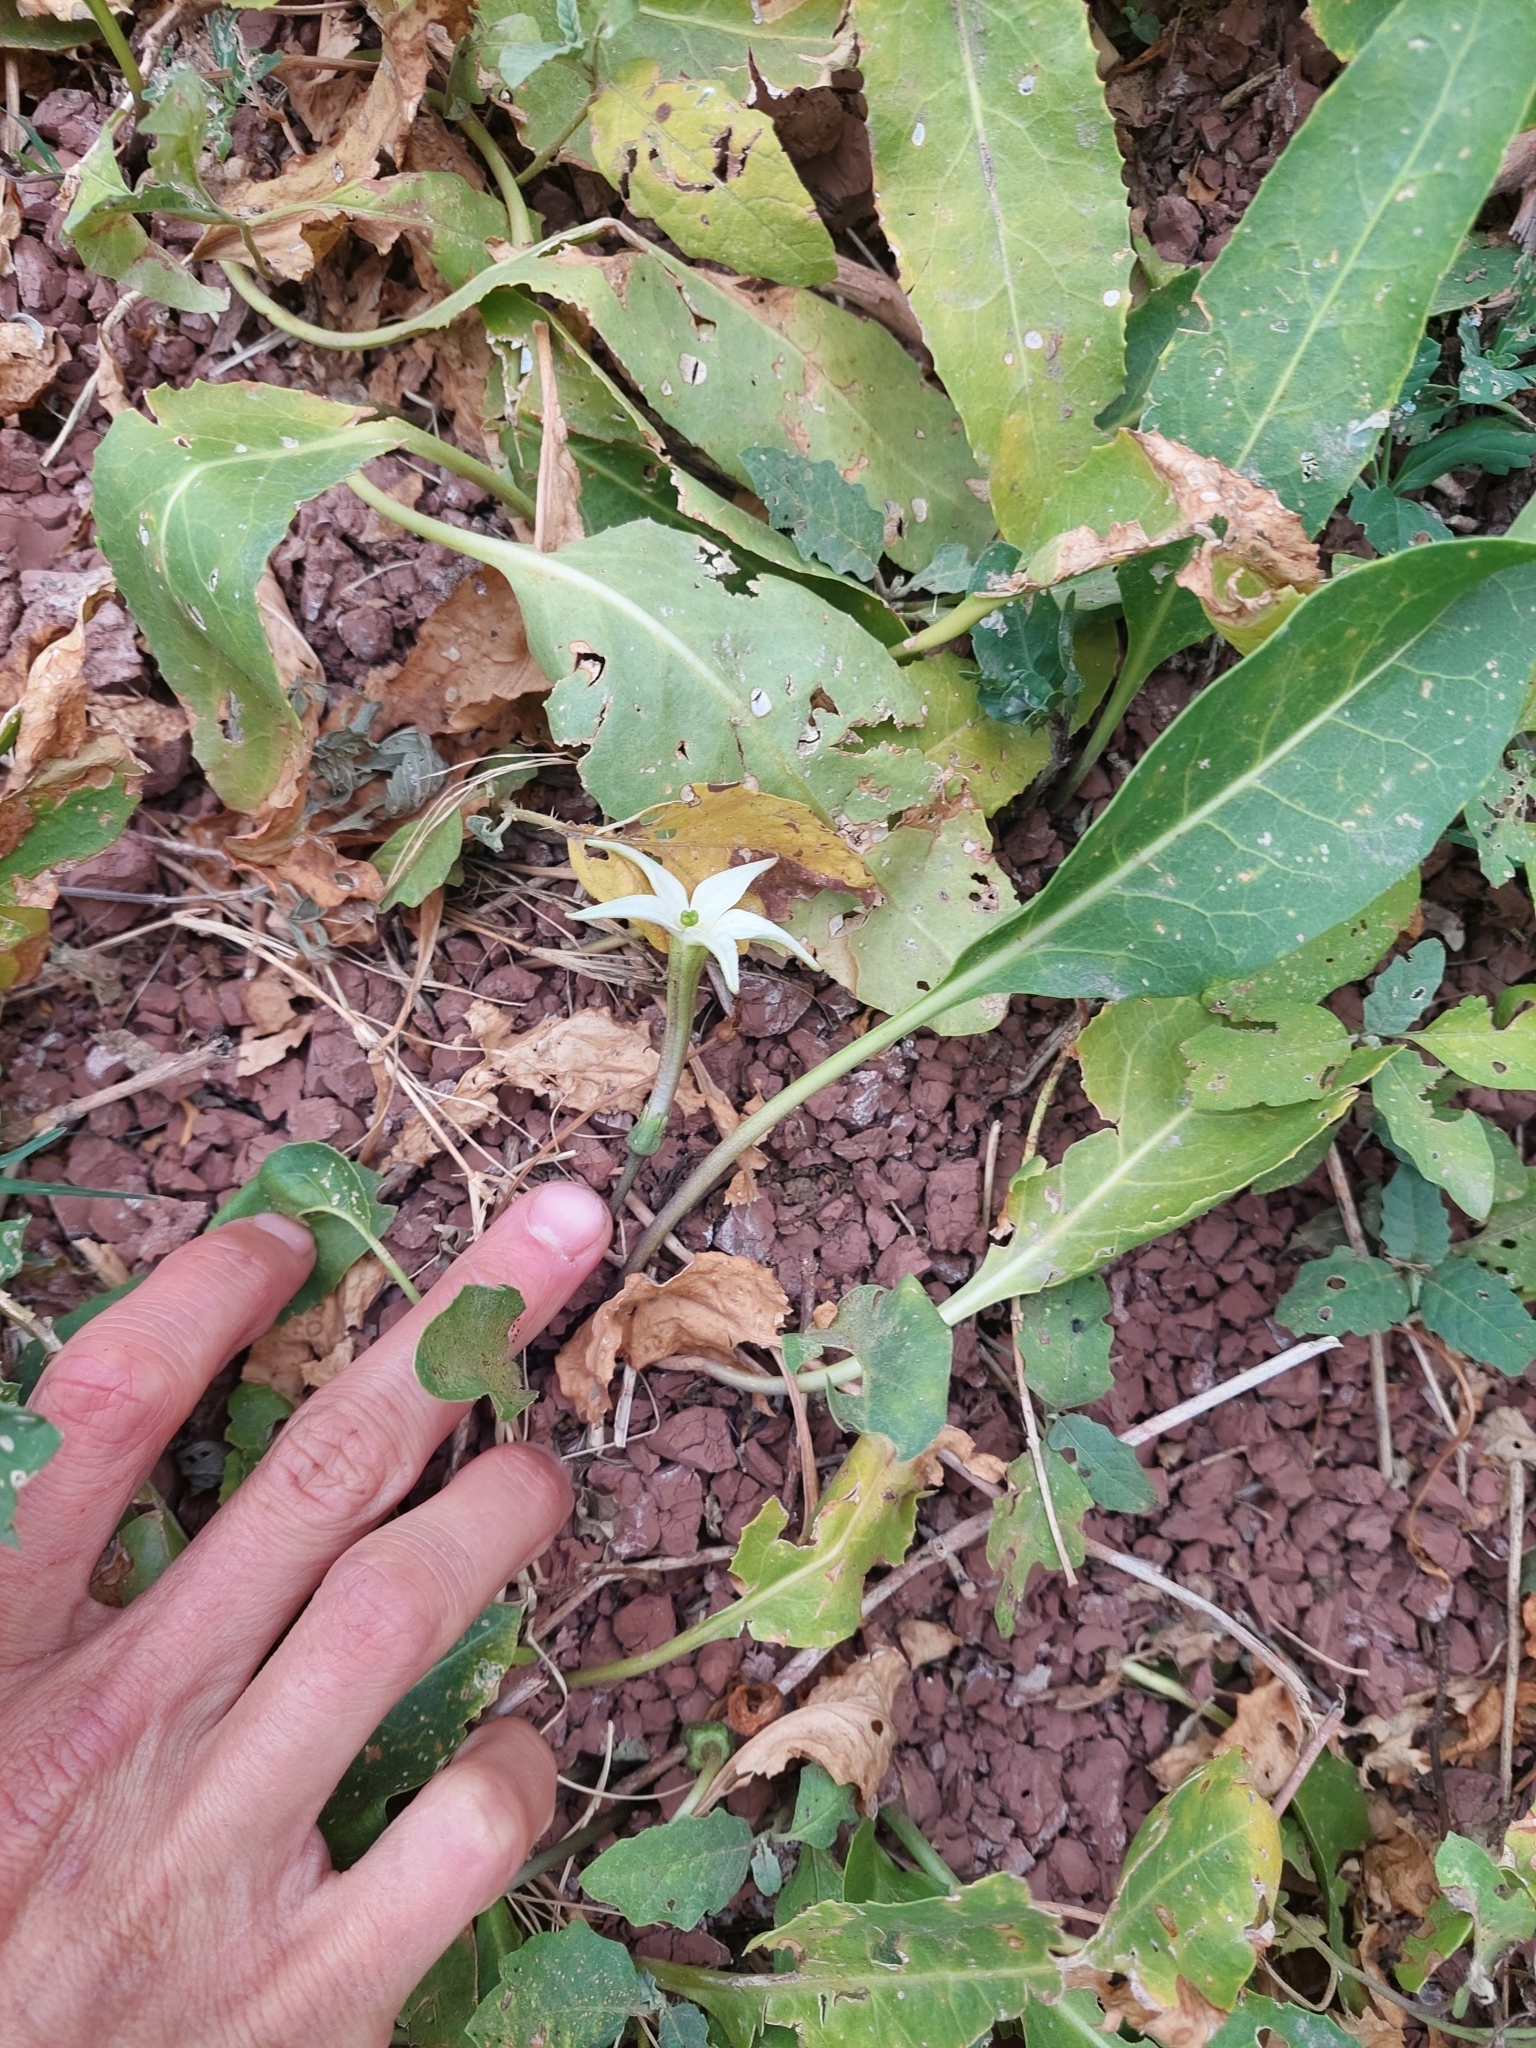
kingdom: Plantae
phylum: Tracheophyta
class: Magnoliopsida
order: Solanales
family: Solanaceae
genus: Jaborosa
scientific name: Jaborosa integrifolia
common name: Springblossom
